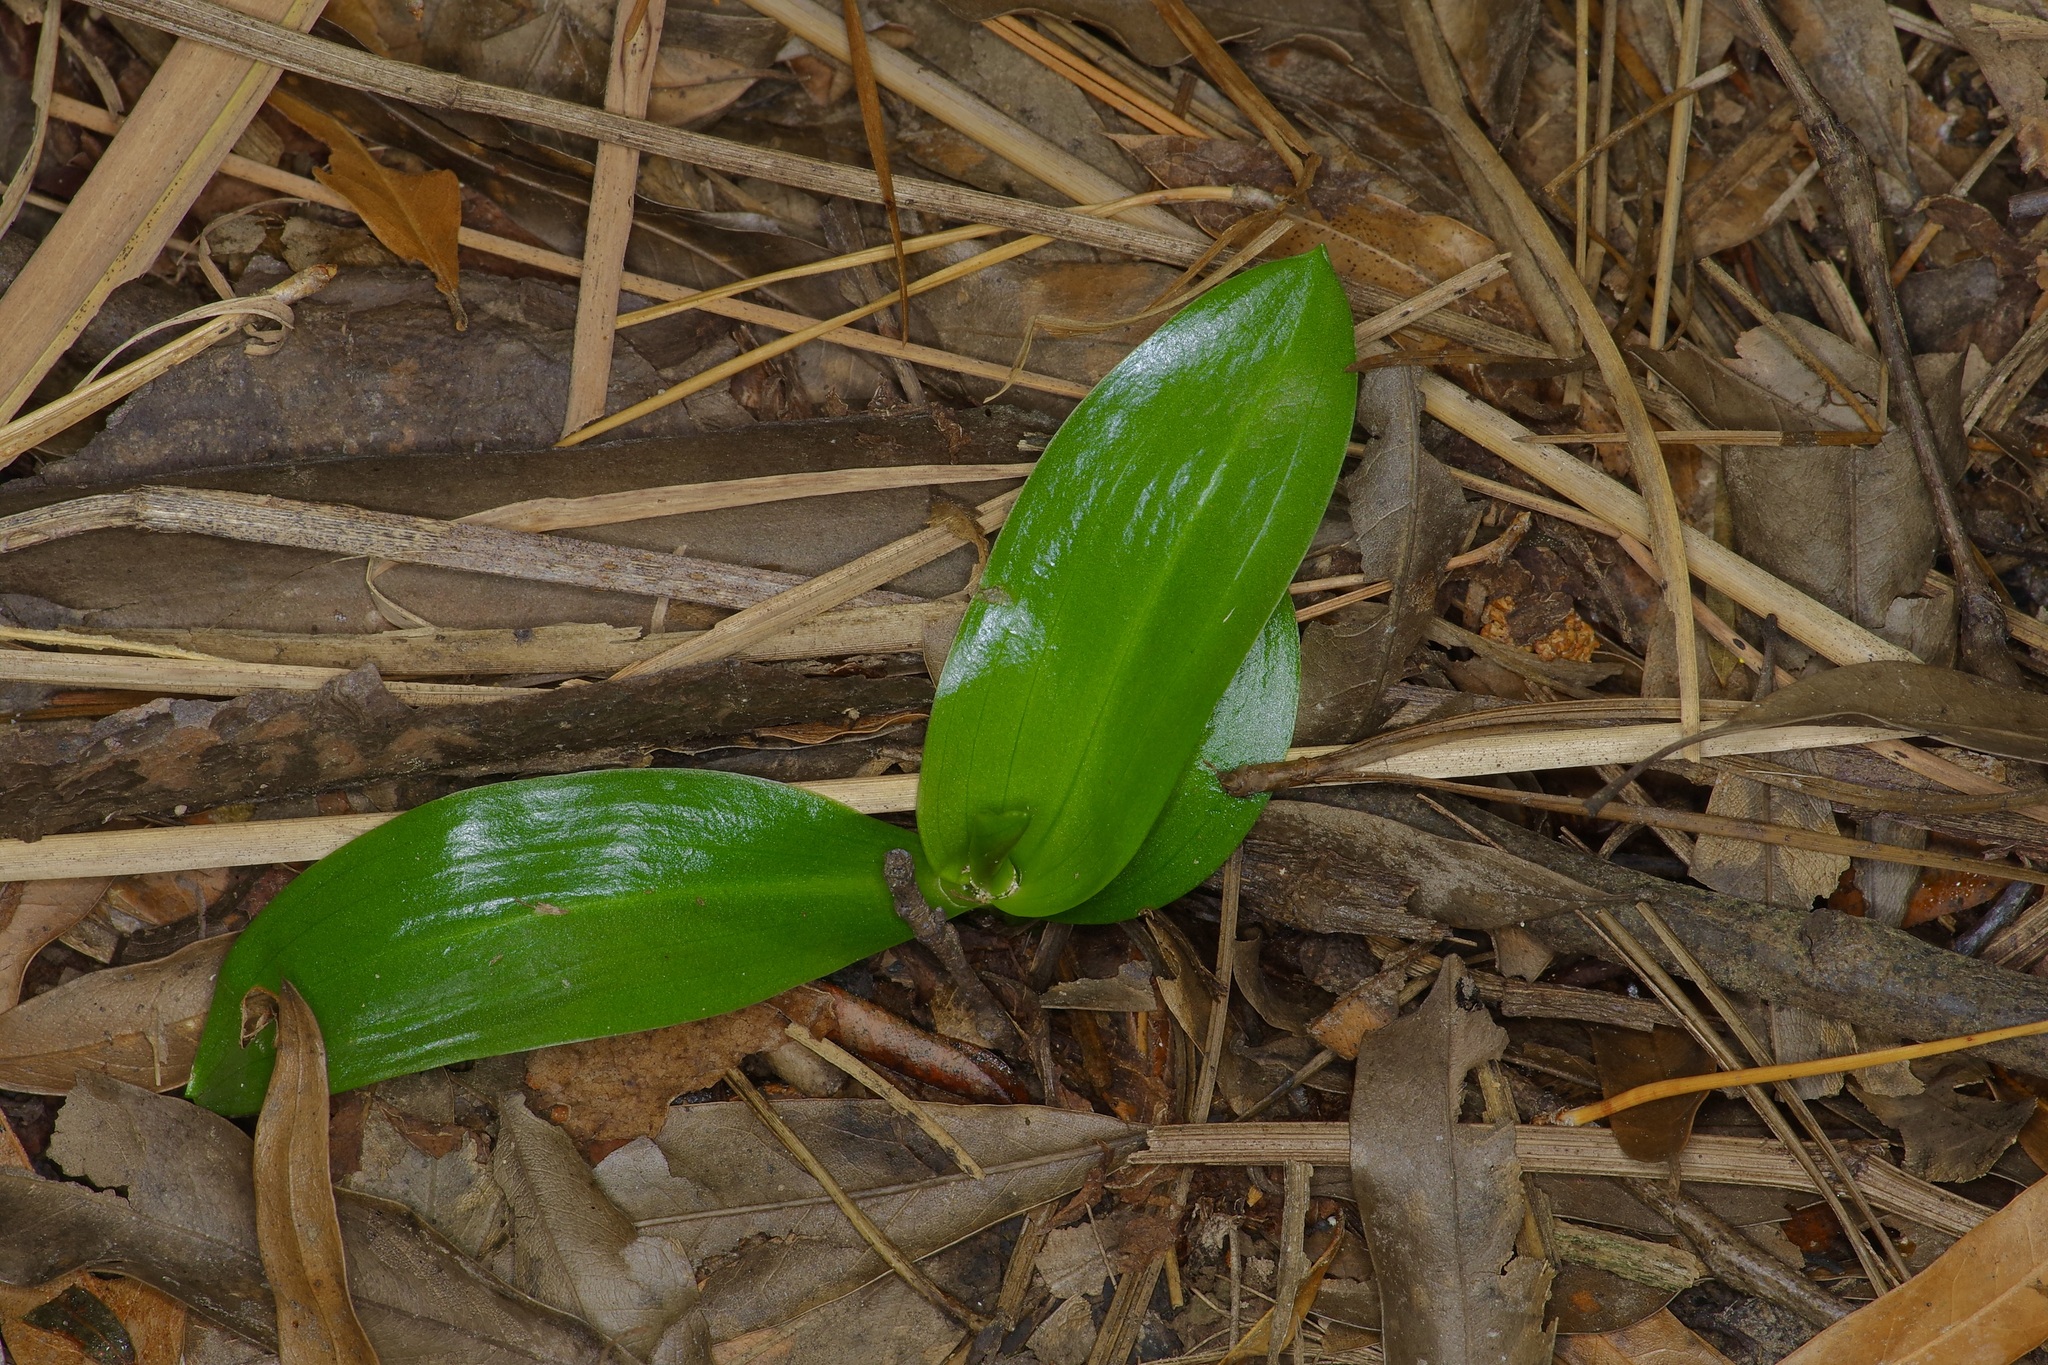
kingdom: Plantae
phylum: Tracheophyta
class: Liliopsida
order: Asparagales
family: Orchidaceae
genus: Spiranthes
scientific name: Spiranthes odorata
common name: Marsh ladies'-tresses
